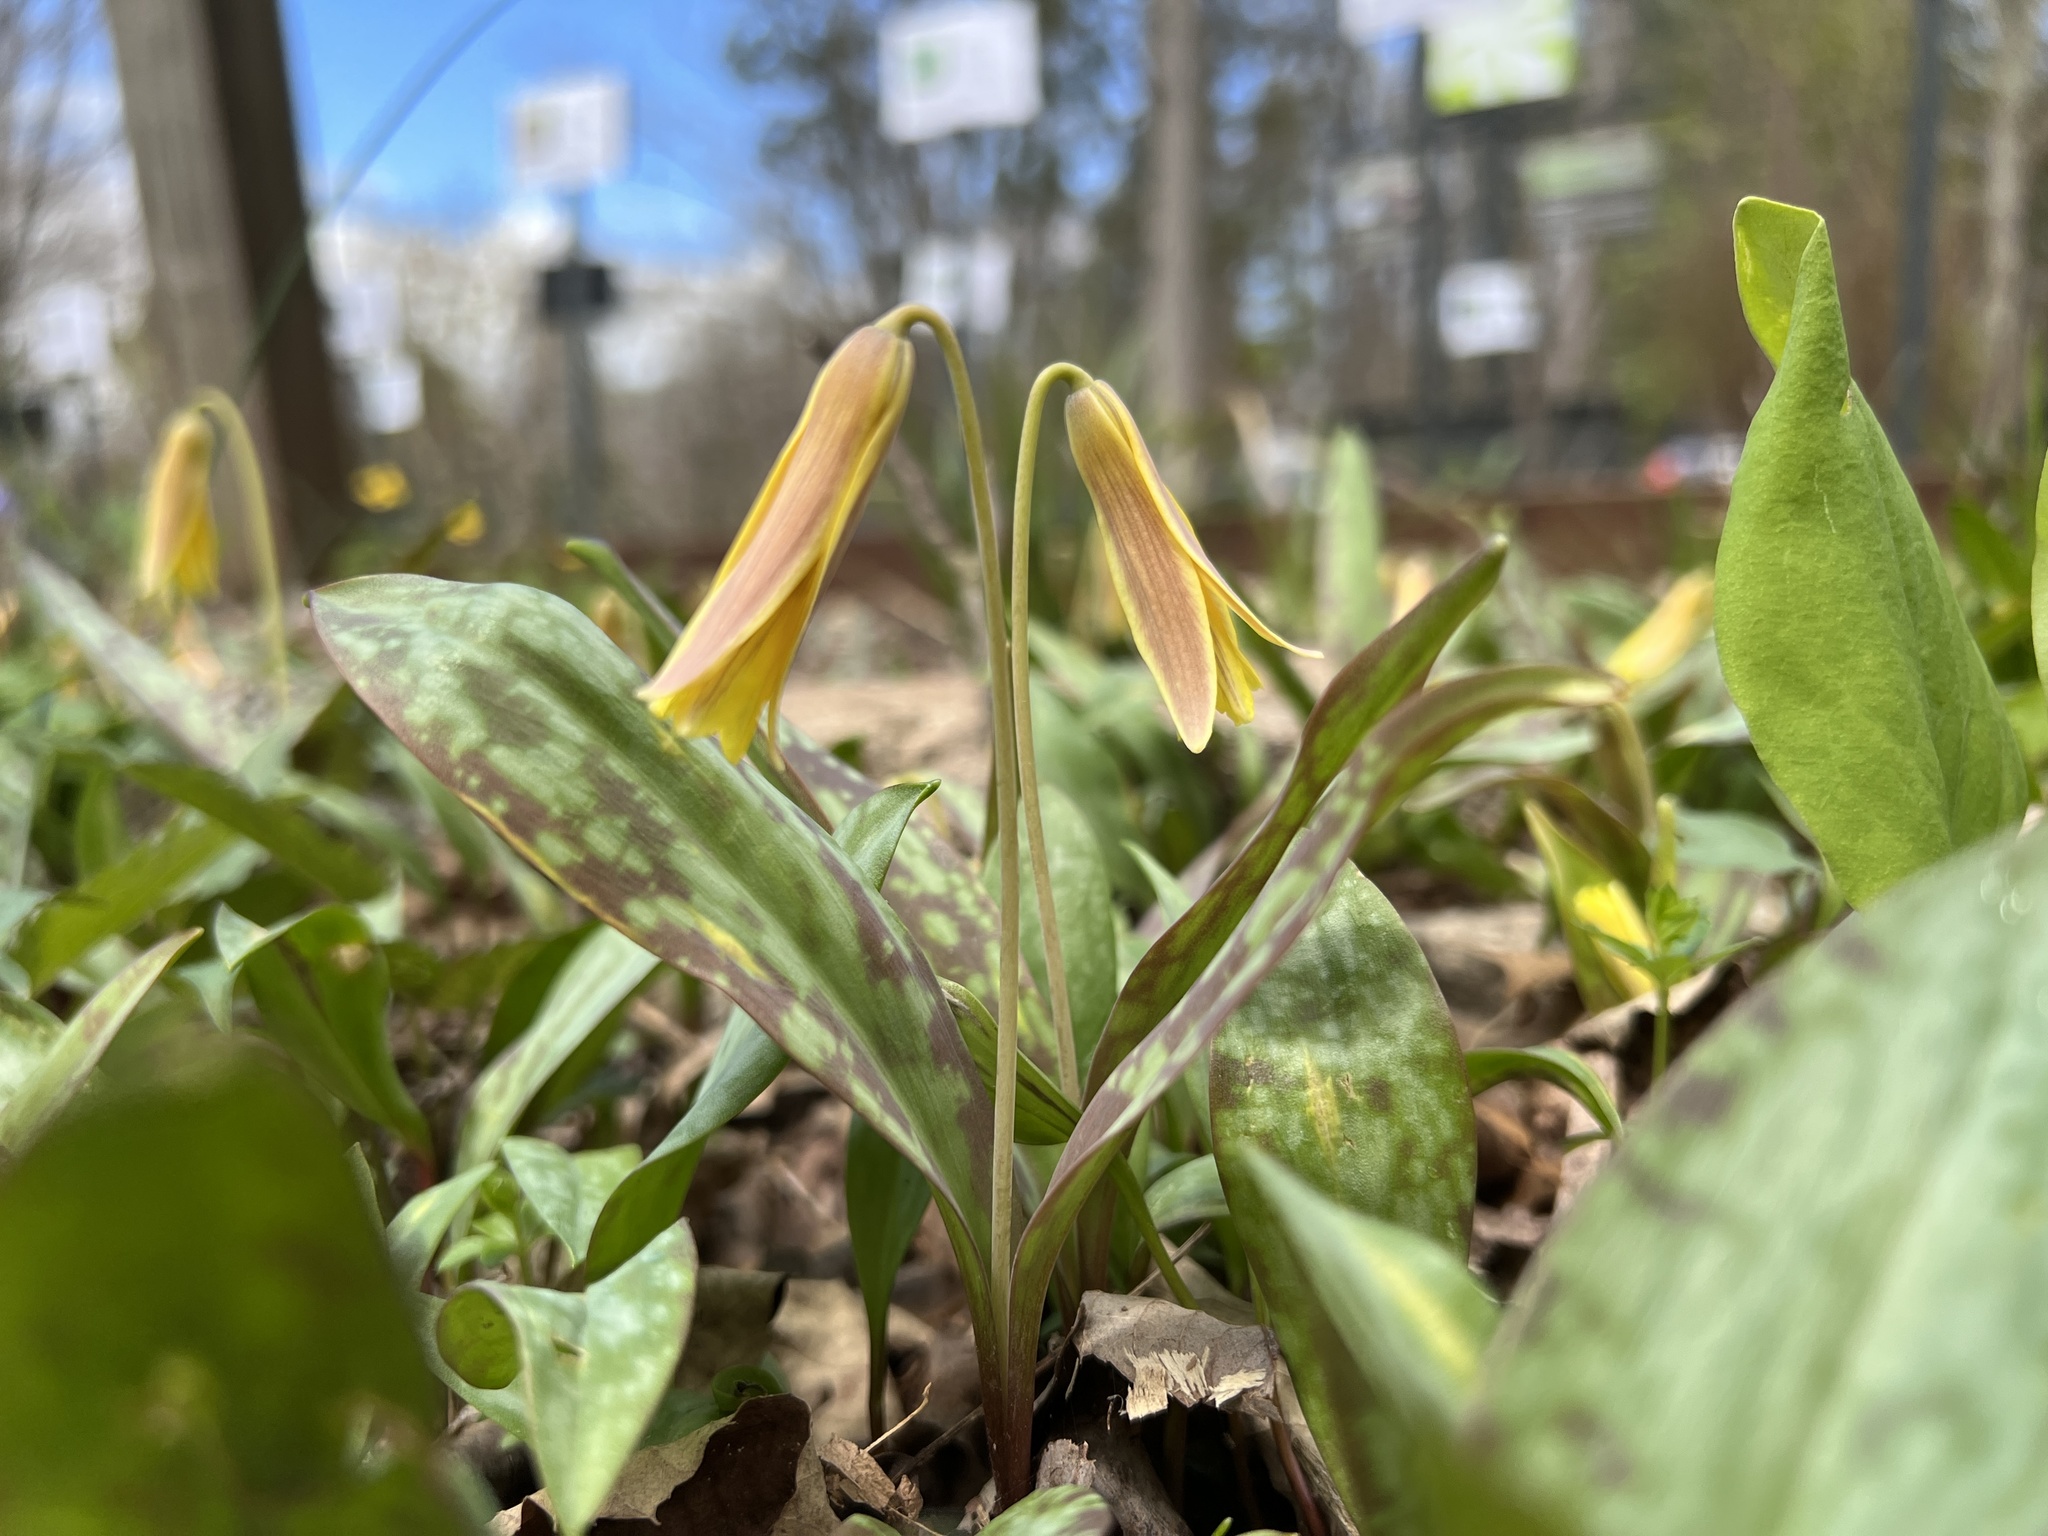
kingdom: Plantae
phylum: Tracheophyta
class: Liliopsida
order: Liliales
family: Liliaceae
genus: Erythronium
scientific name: Erythronium americanum
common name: Yellow adder's-tongue
